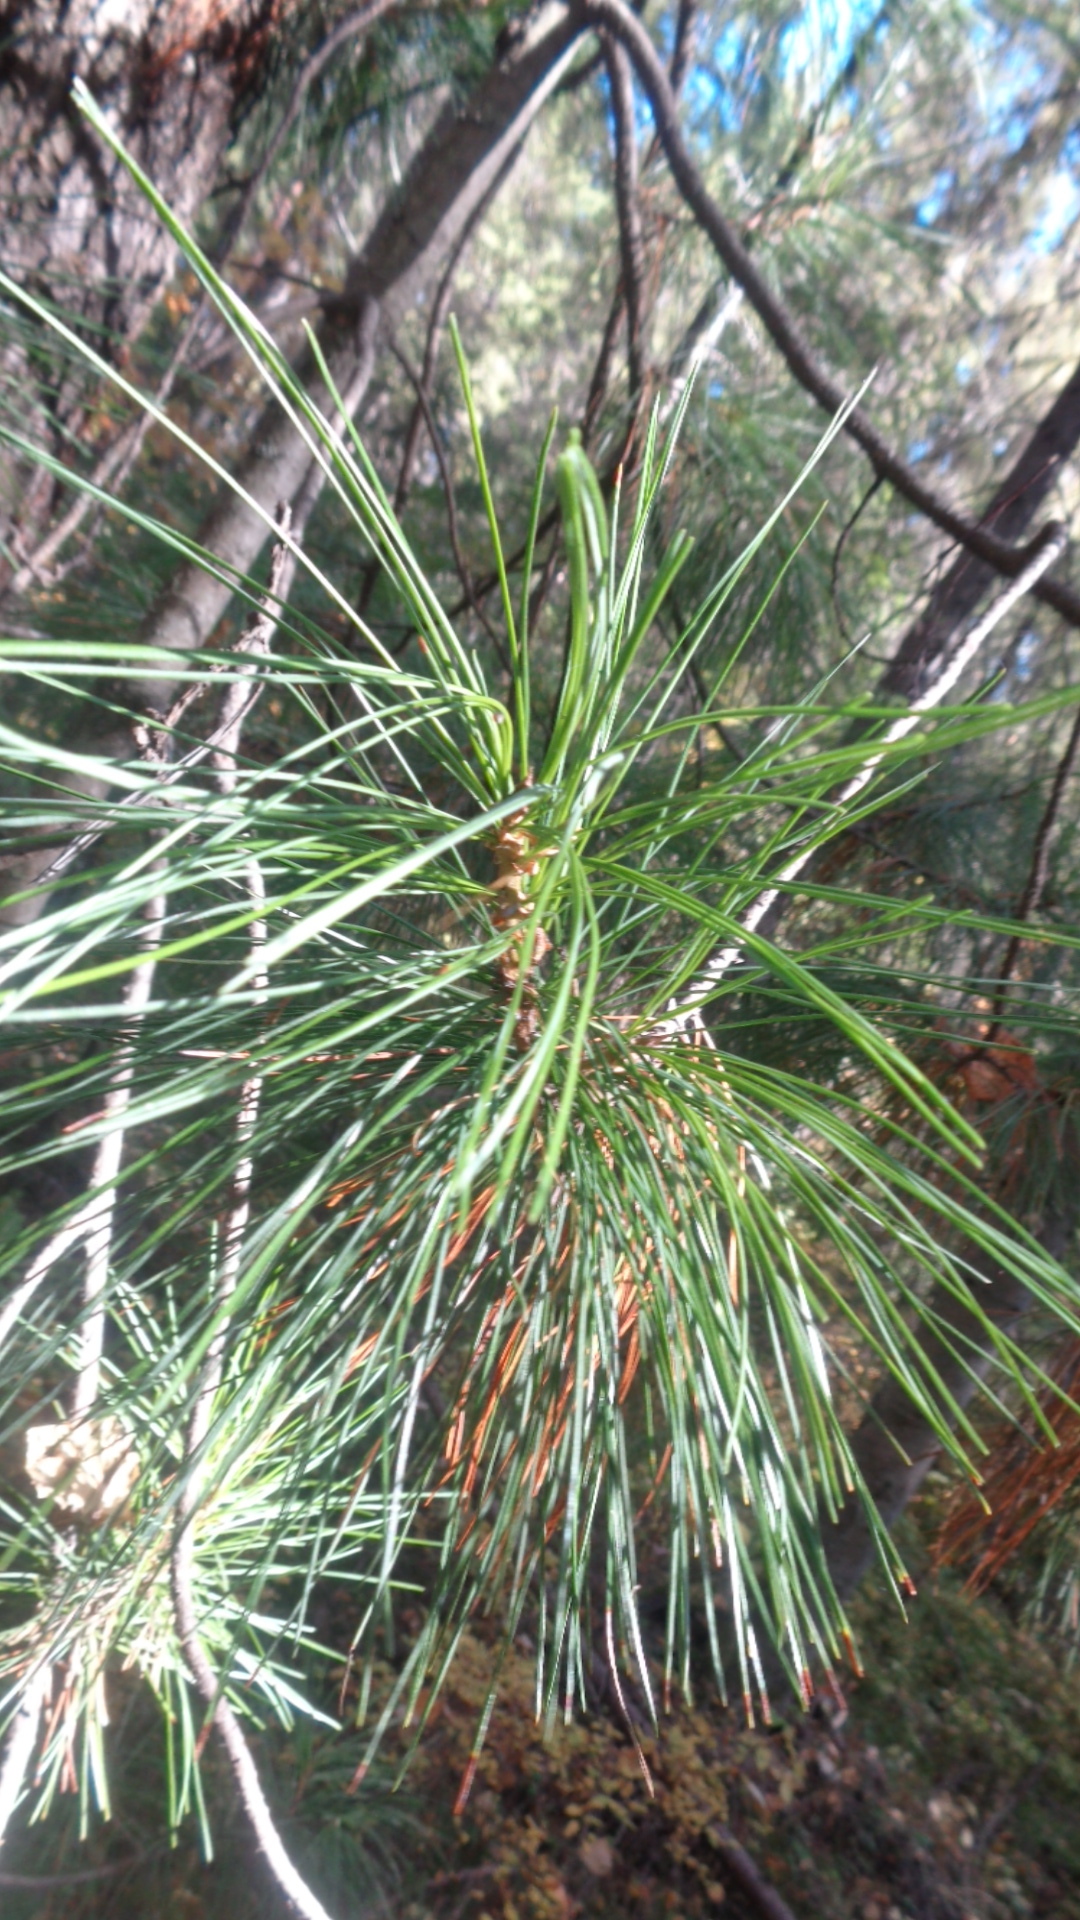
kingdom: Plantae
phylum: Tracheophyta
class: Pinopsida
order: Pinales
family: Pinaceae
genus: Pinus
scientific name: Pinus sibirica
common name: Siberian pine
